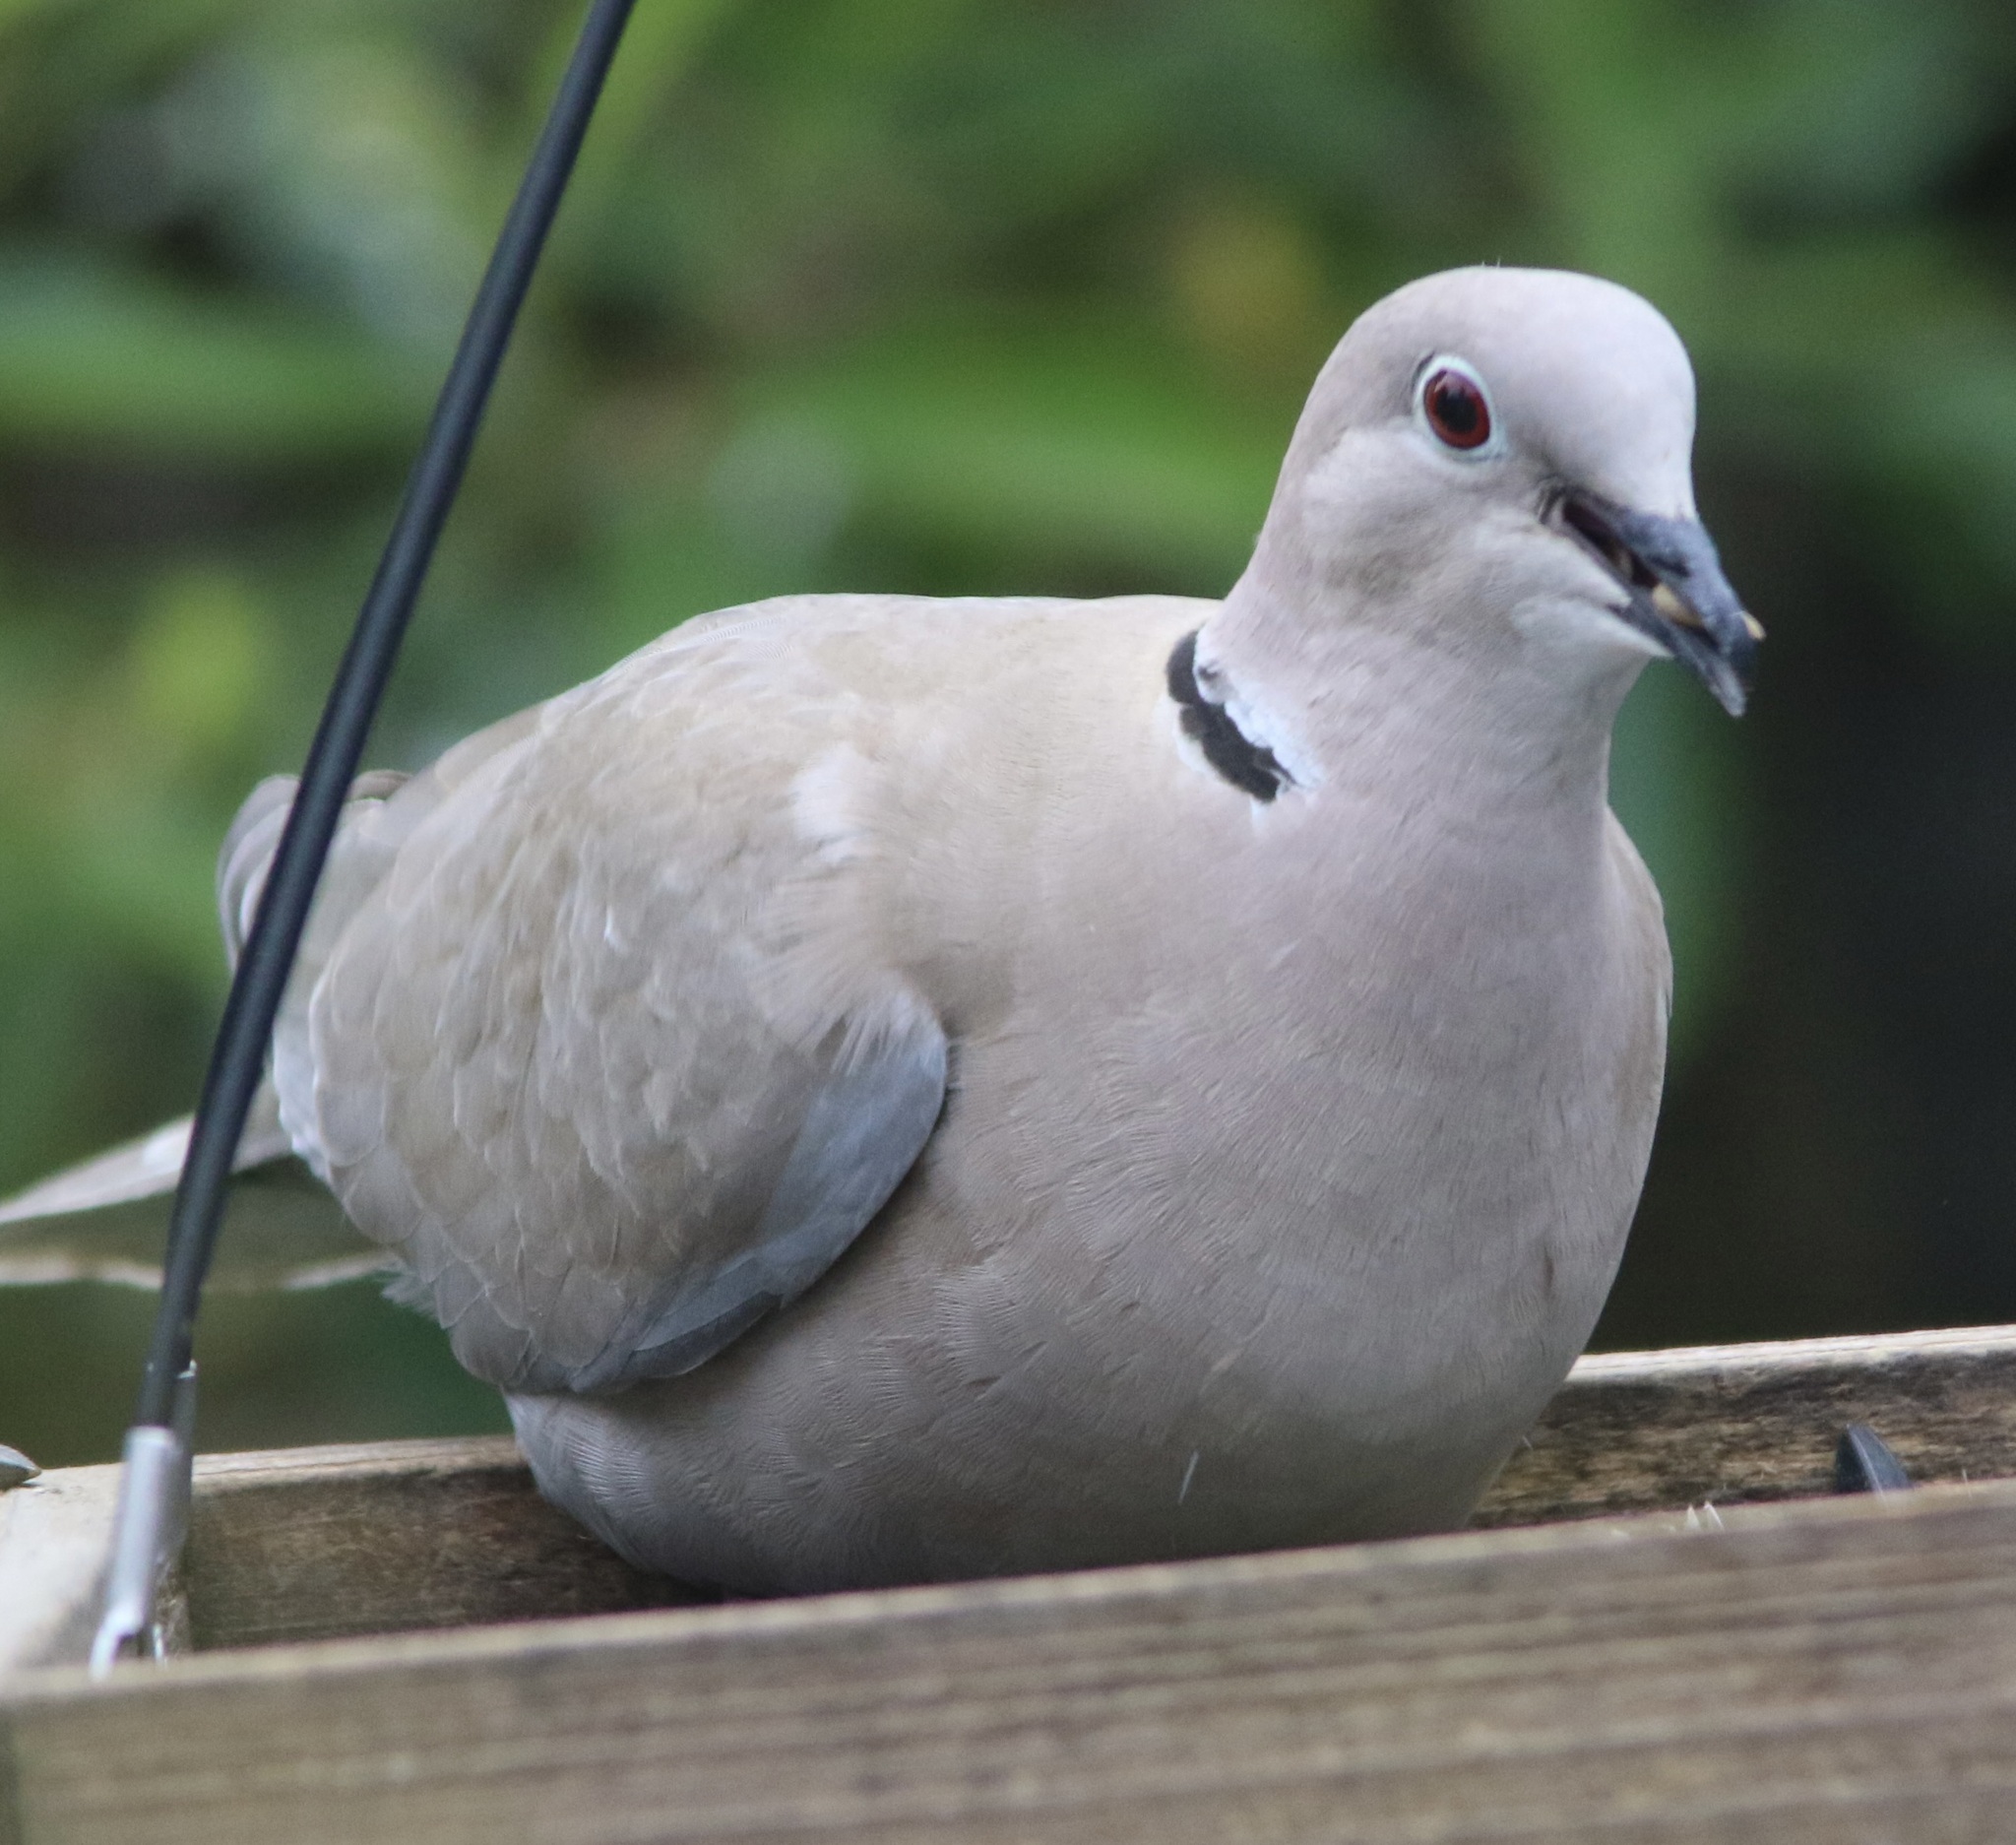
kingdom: Animalia
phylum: Chordata
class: Aves
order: Columbiformes
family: Columbidae
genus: Streptopelia
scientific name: Streptopelia decaocto
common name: Eurasian collared dove
